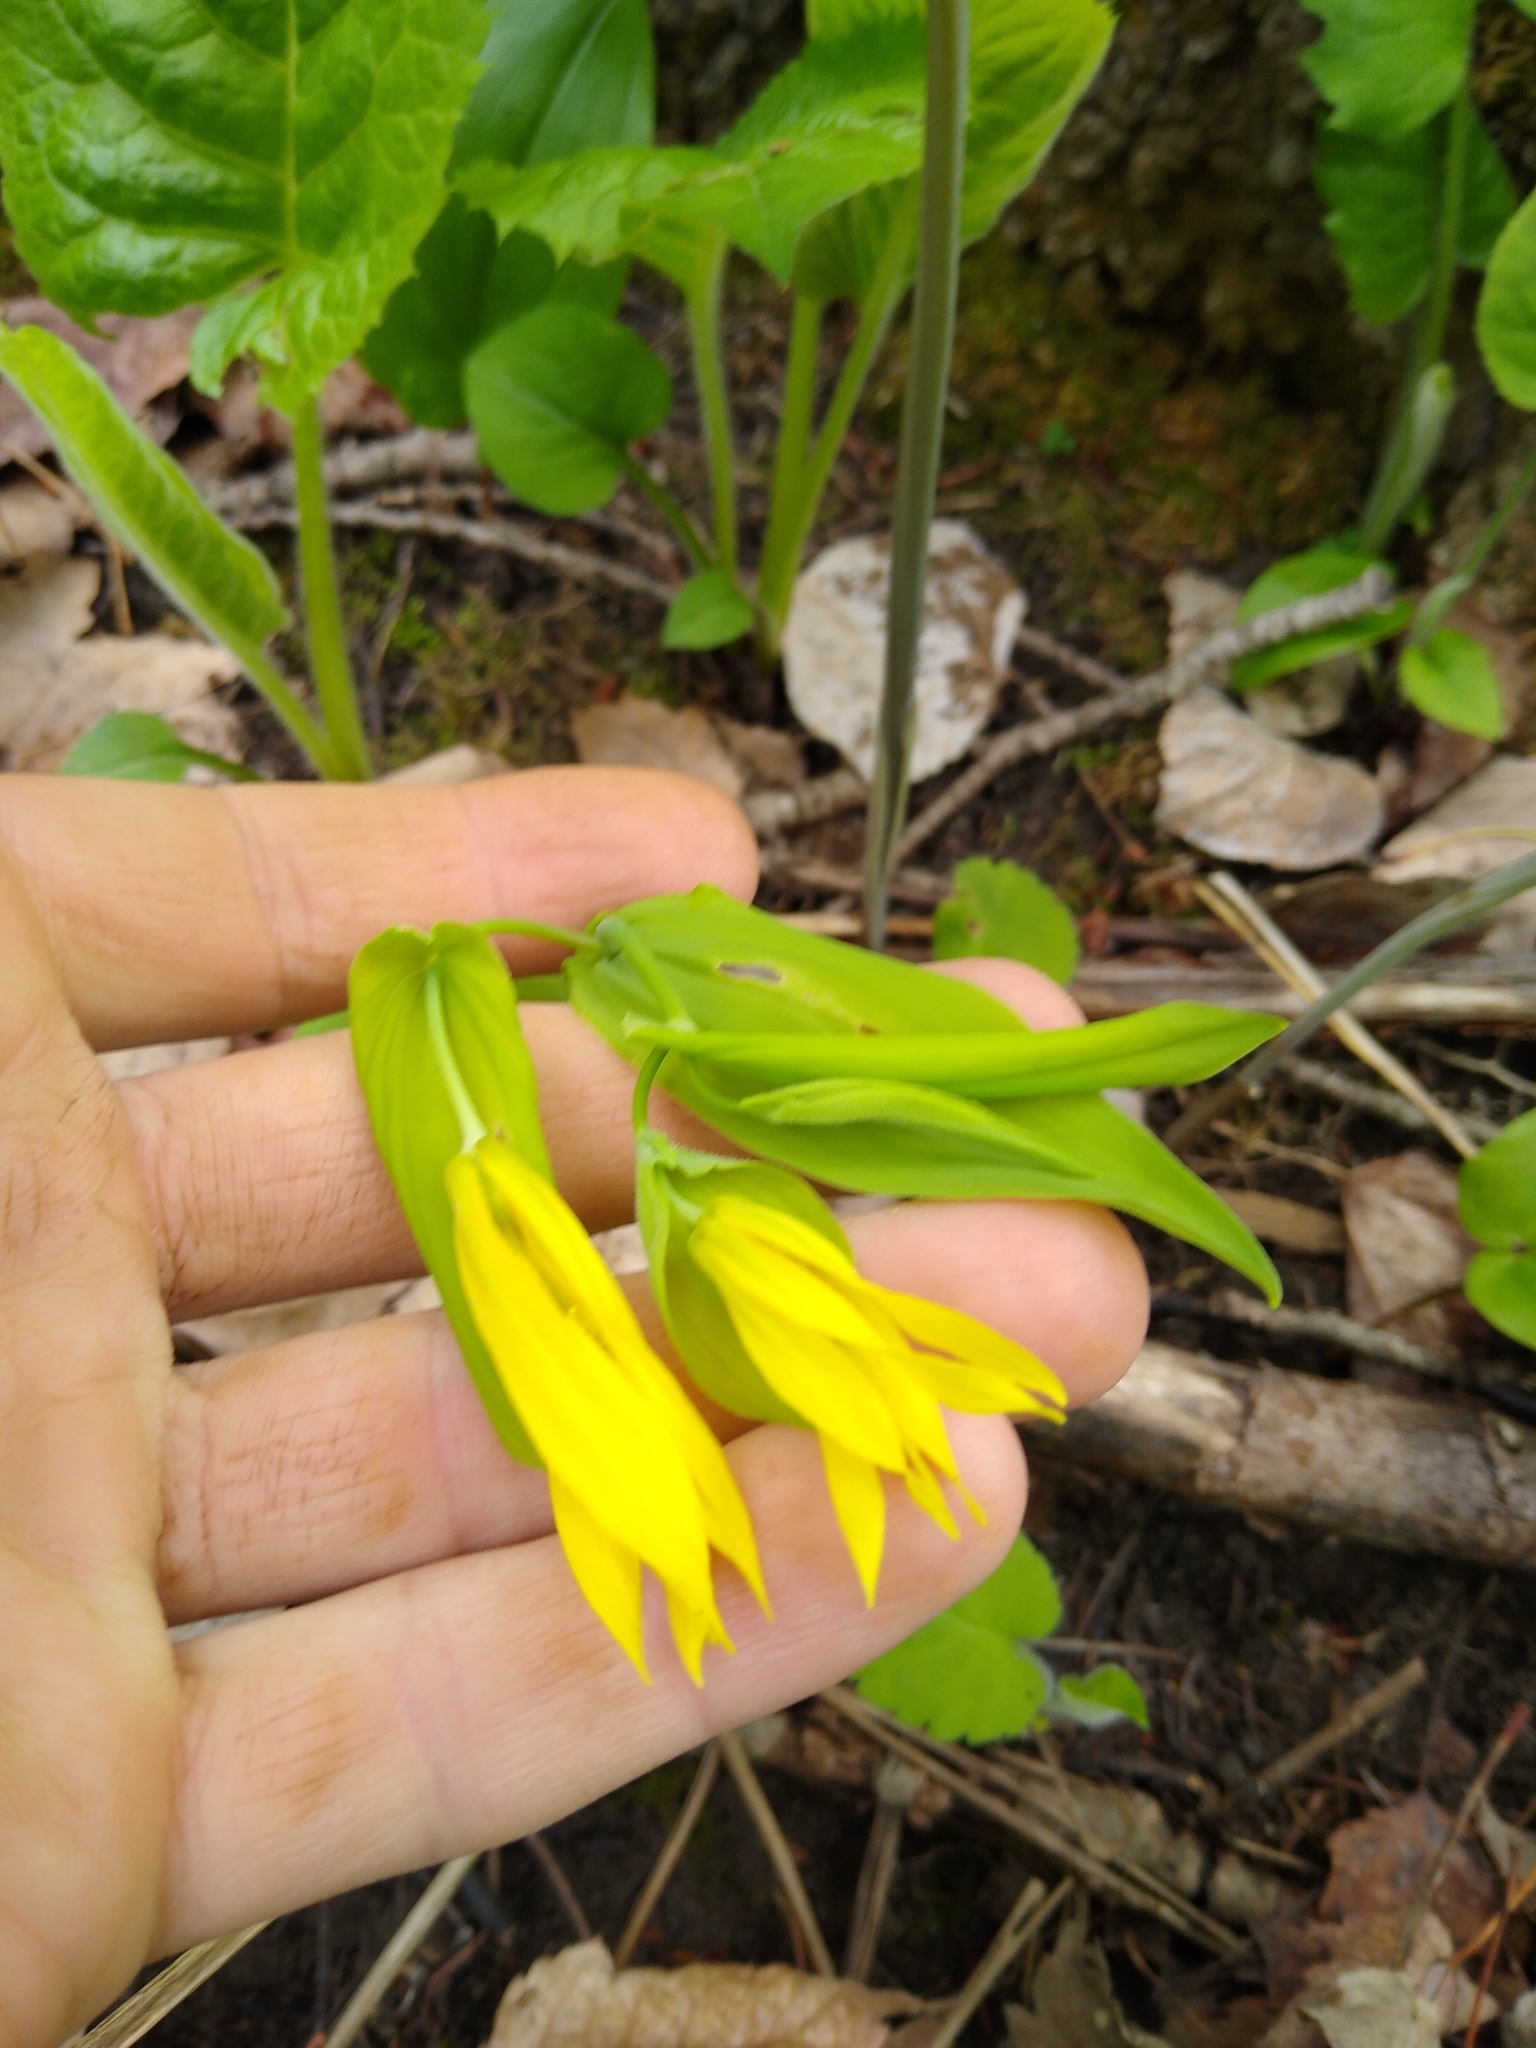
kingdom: Plantae
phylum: Tracheophyta
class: Liliopsida
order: Liliales
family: Colchicaceae
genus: Uvularia
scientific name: Uvularia grandiflora
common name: Bellwort
